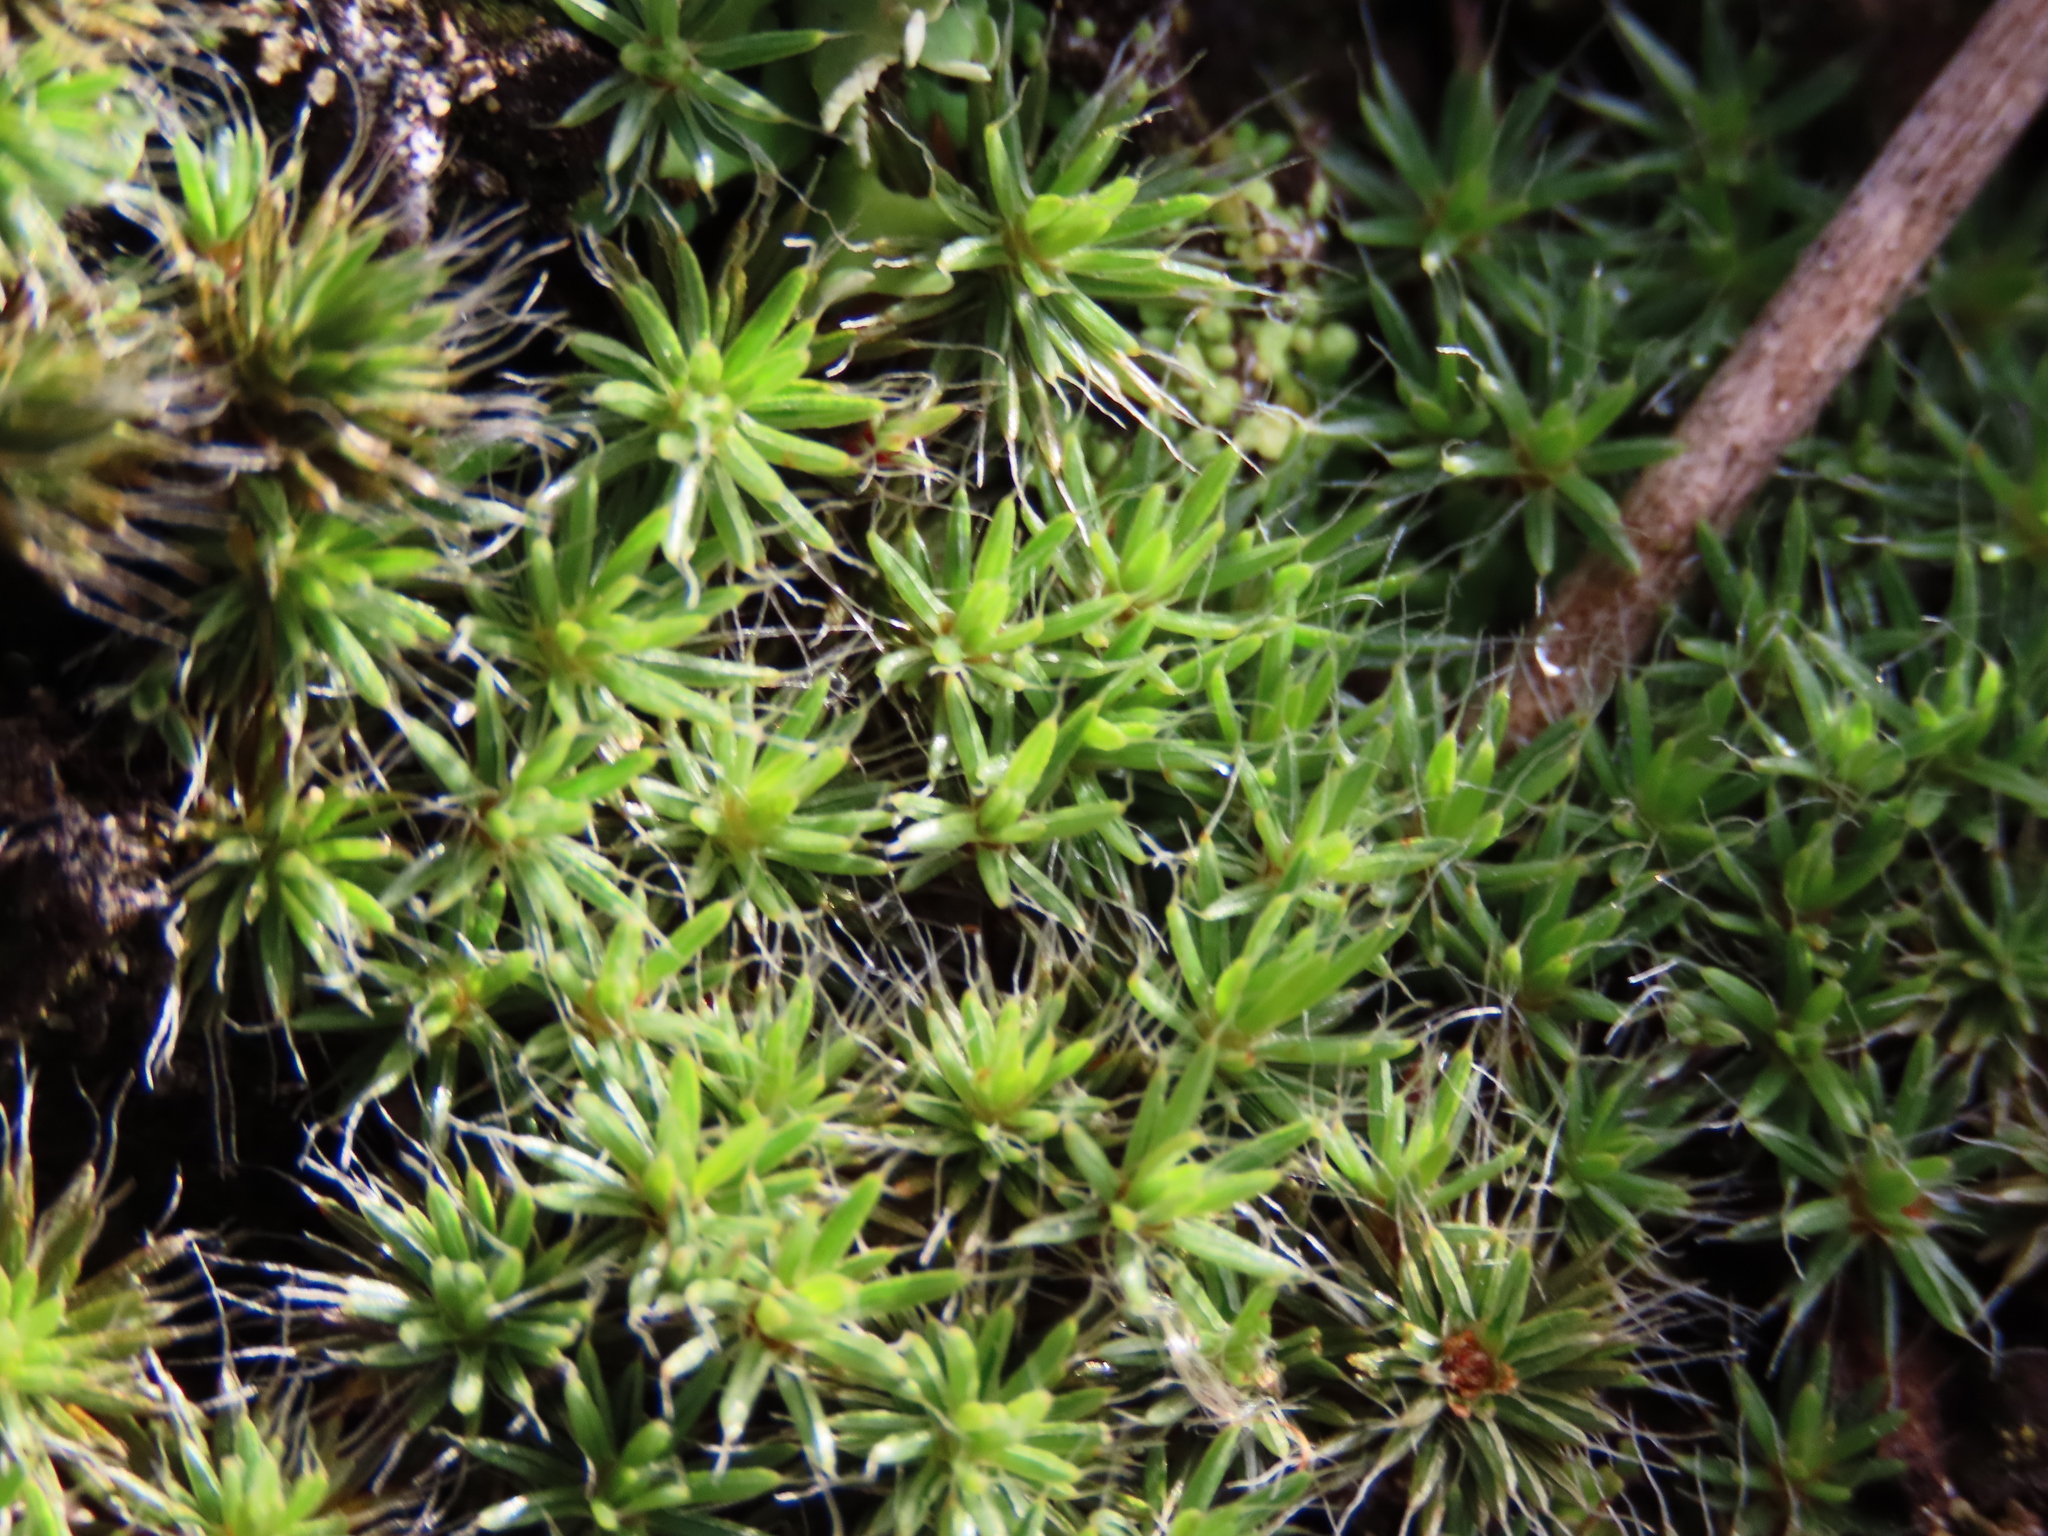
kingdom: Plantae
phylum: Bryophyta
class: Polytrichopsida
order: Polytrichales
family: Polytrichaceae
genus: Polytrichum
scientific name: Polytrichum piliferum
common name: Bristly haircap
